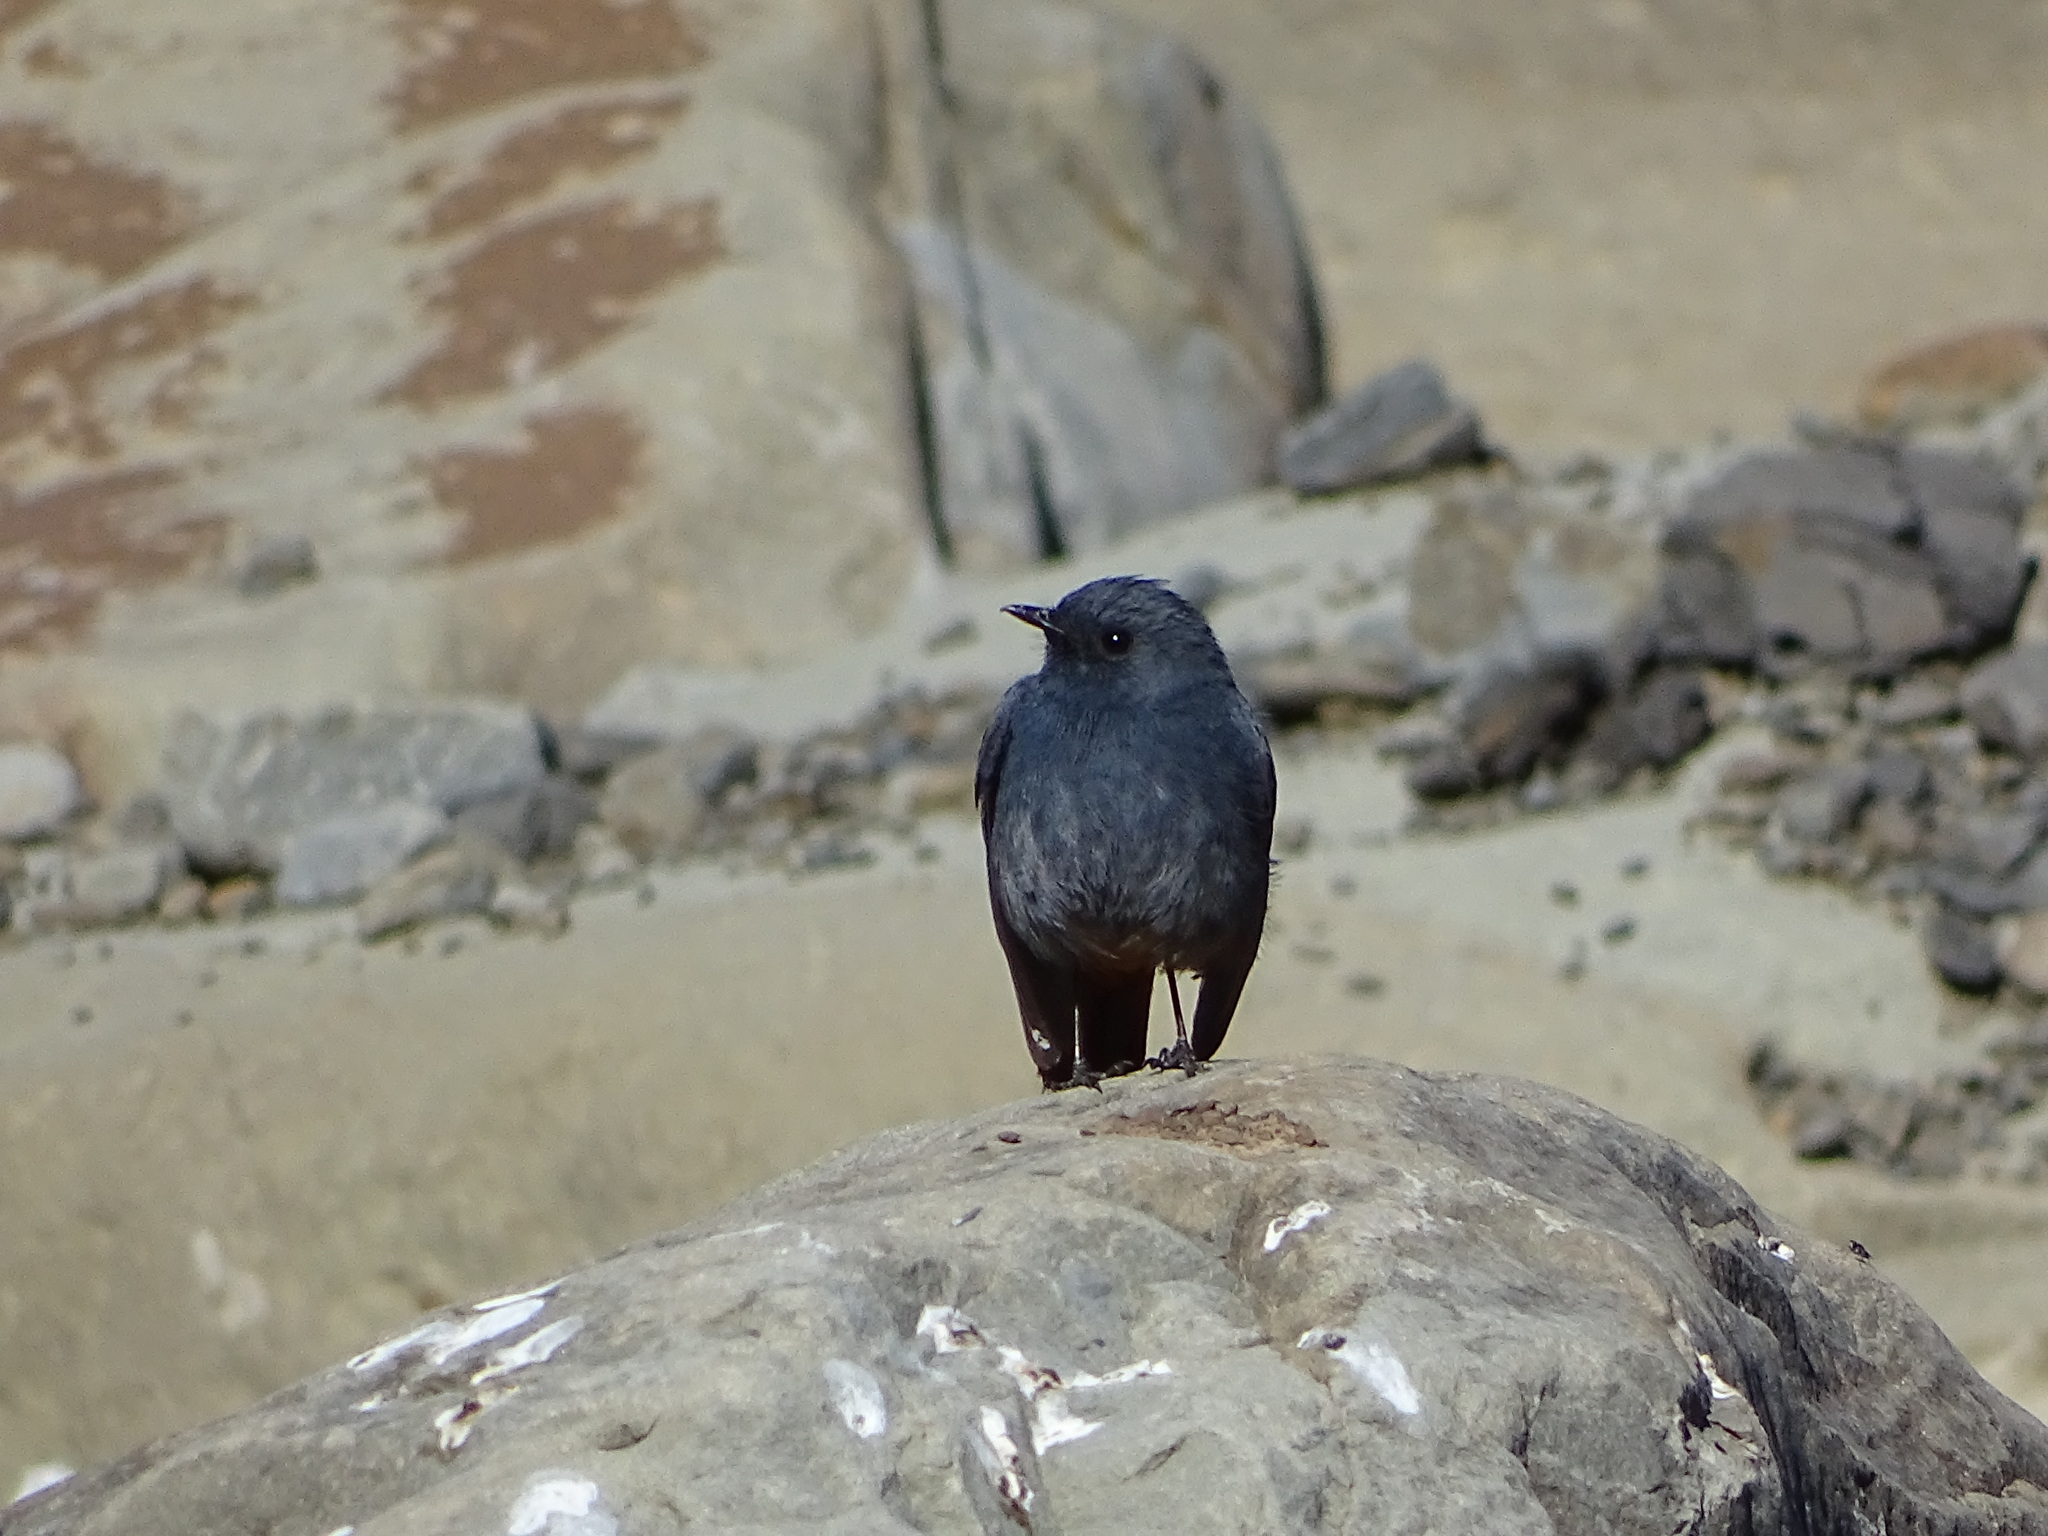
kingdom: Animalia
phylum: Chordata
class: Aves
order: Passeriformes
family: Muscicapidae
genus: Phoenicurus
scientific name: Phoenicurus fuliginosus
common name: Plumbeous water redstart
